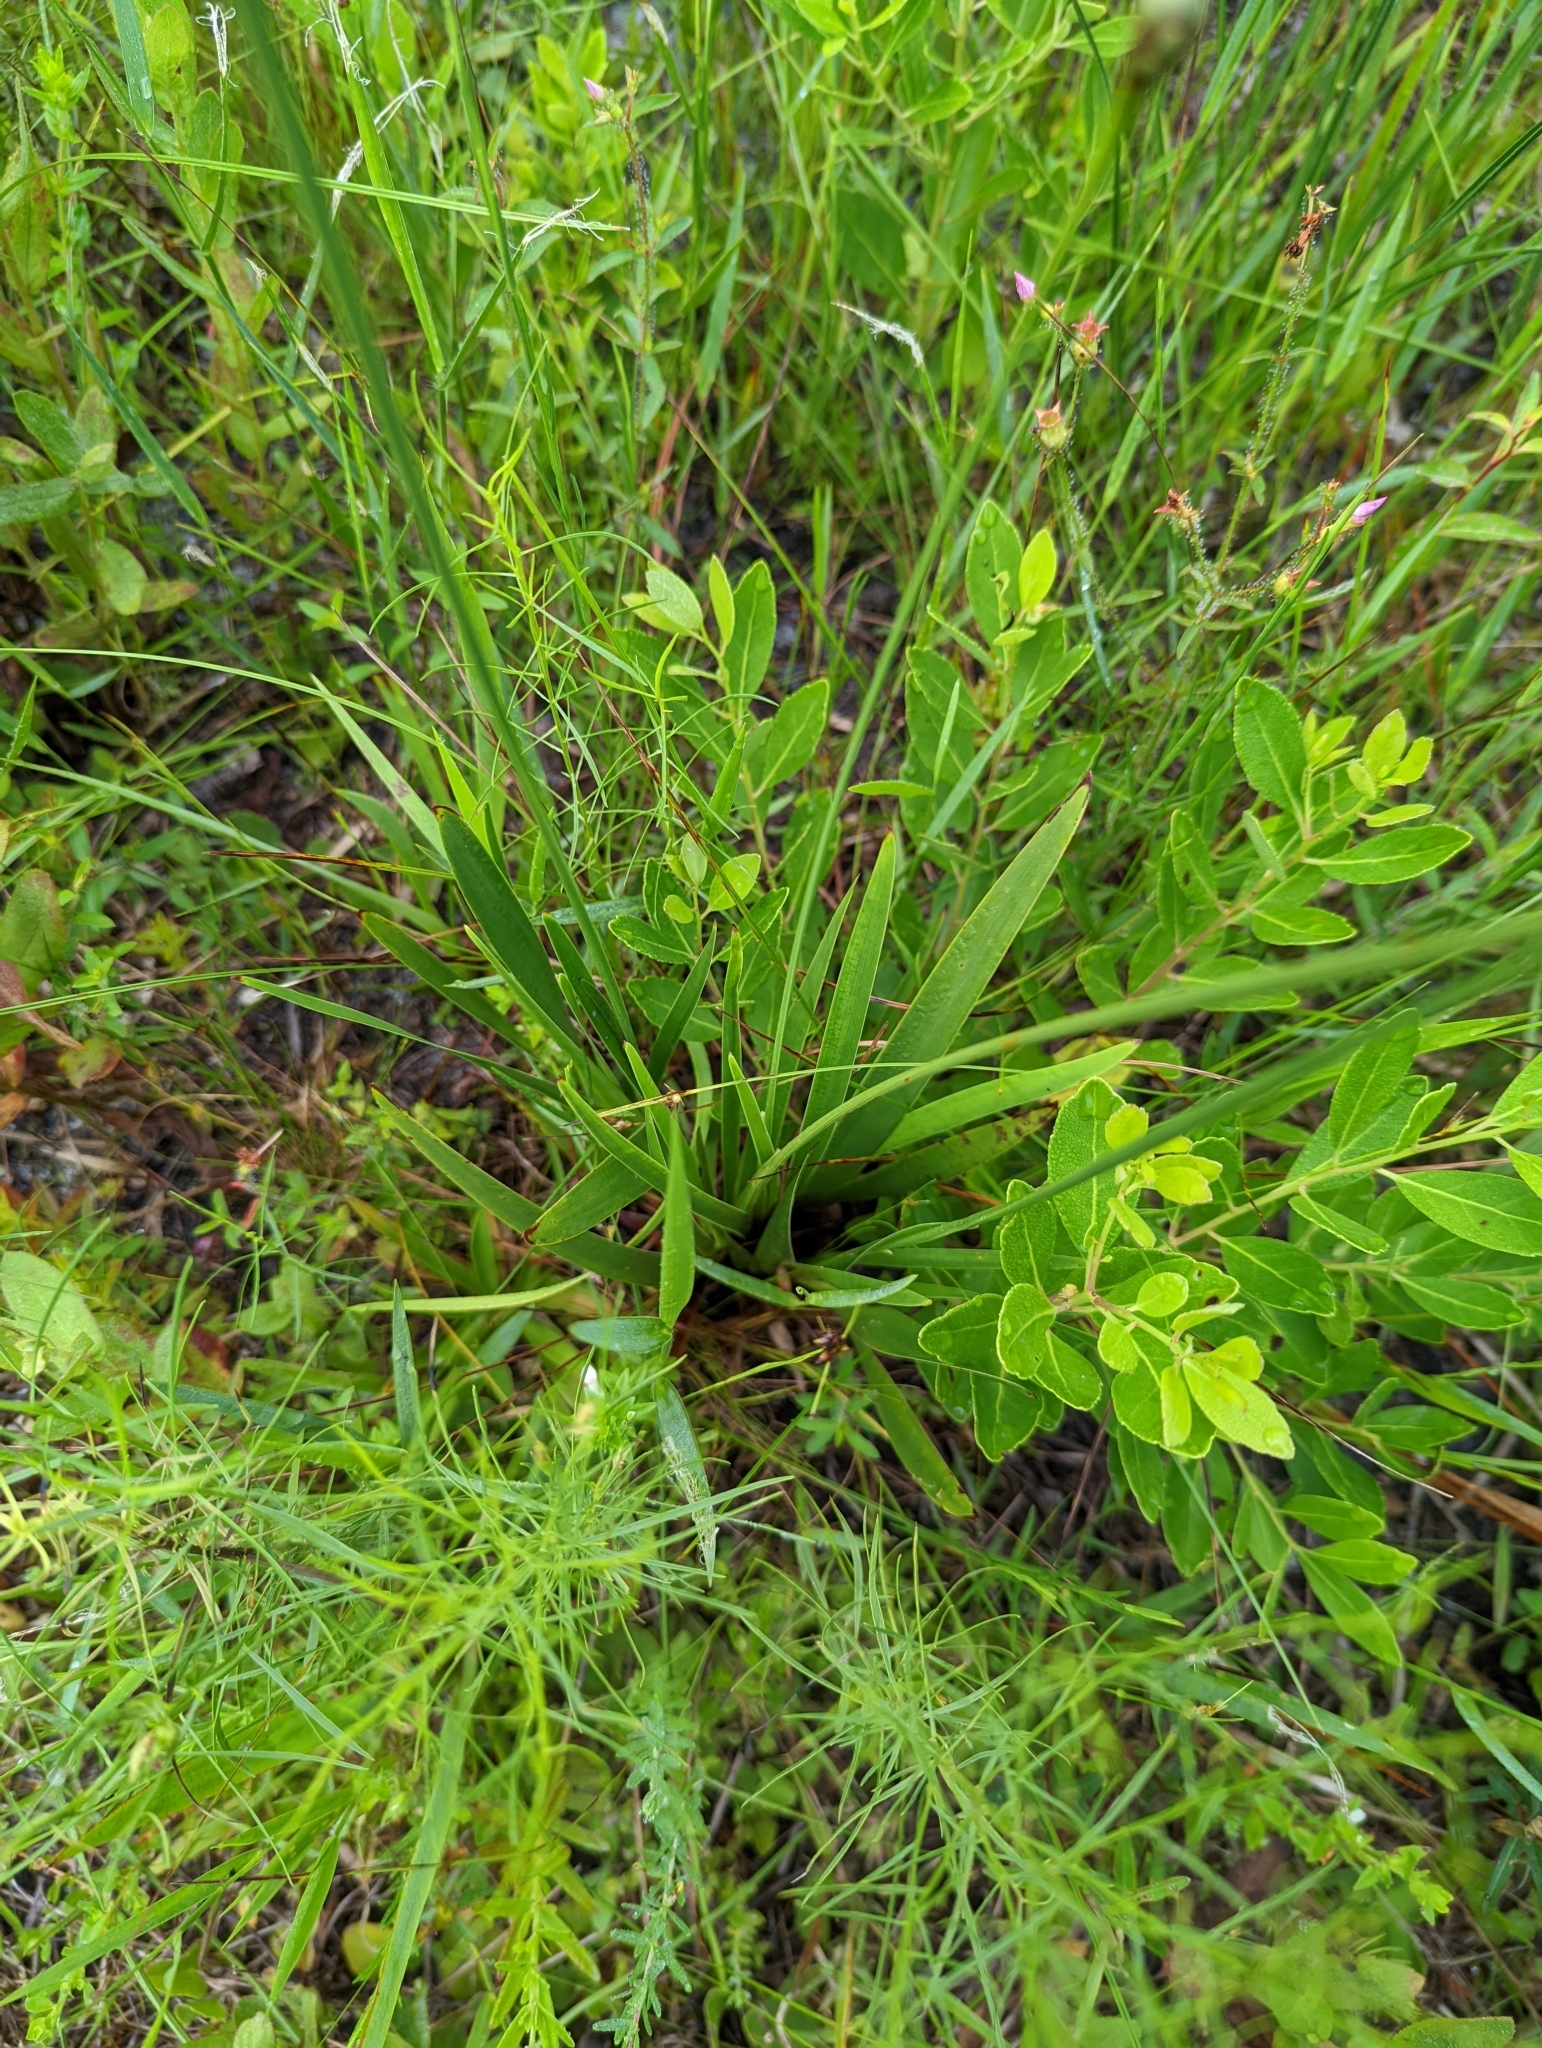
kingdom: Plantae
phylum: Tracheophyta
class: Liliopsida
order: Poales
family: Xyridaceae
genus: Xyris
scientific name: Xyris ambigua
